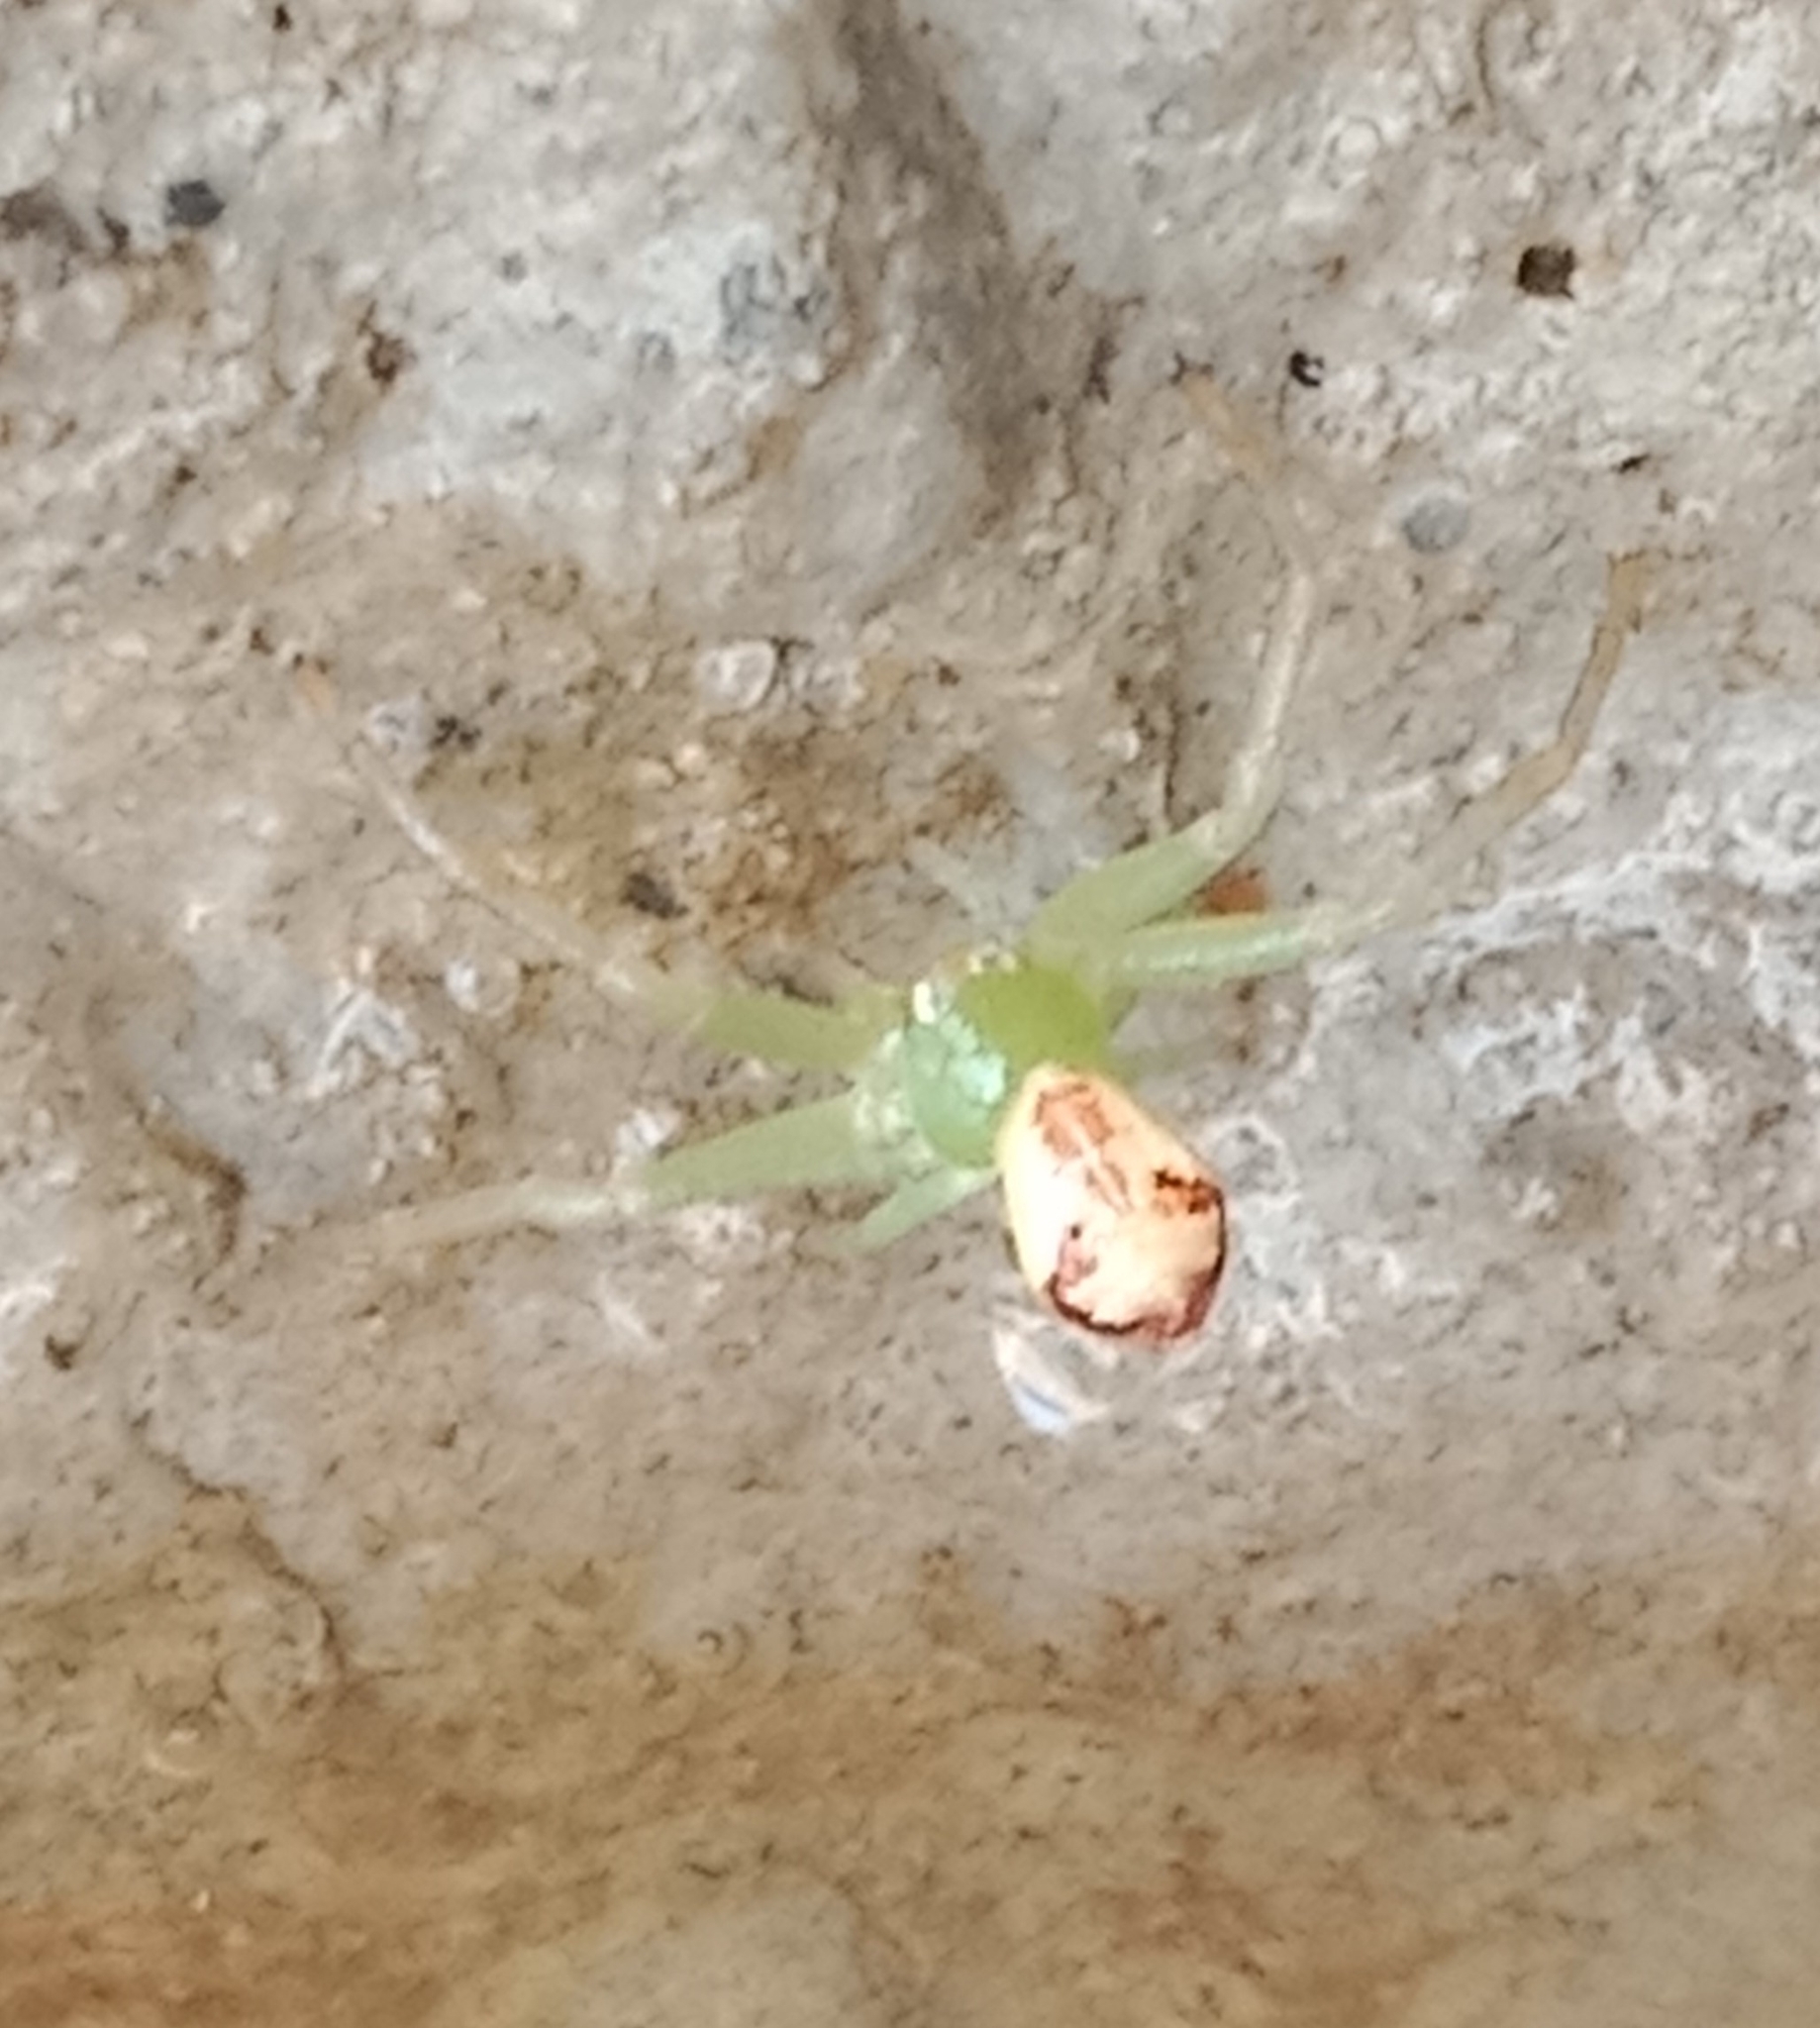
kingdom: Animalia
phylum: Arthropoda
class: Arachnida
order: Araneae
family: Thomisidae
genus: Ebrechtella
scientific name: Ebrechtella tricuspidata
